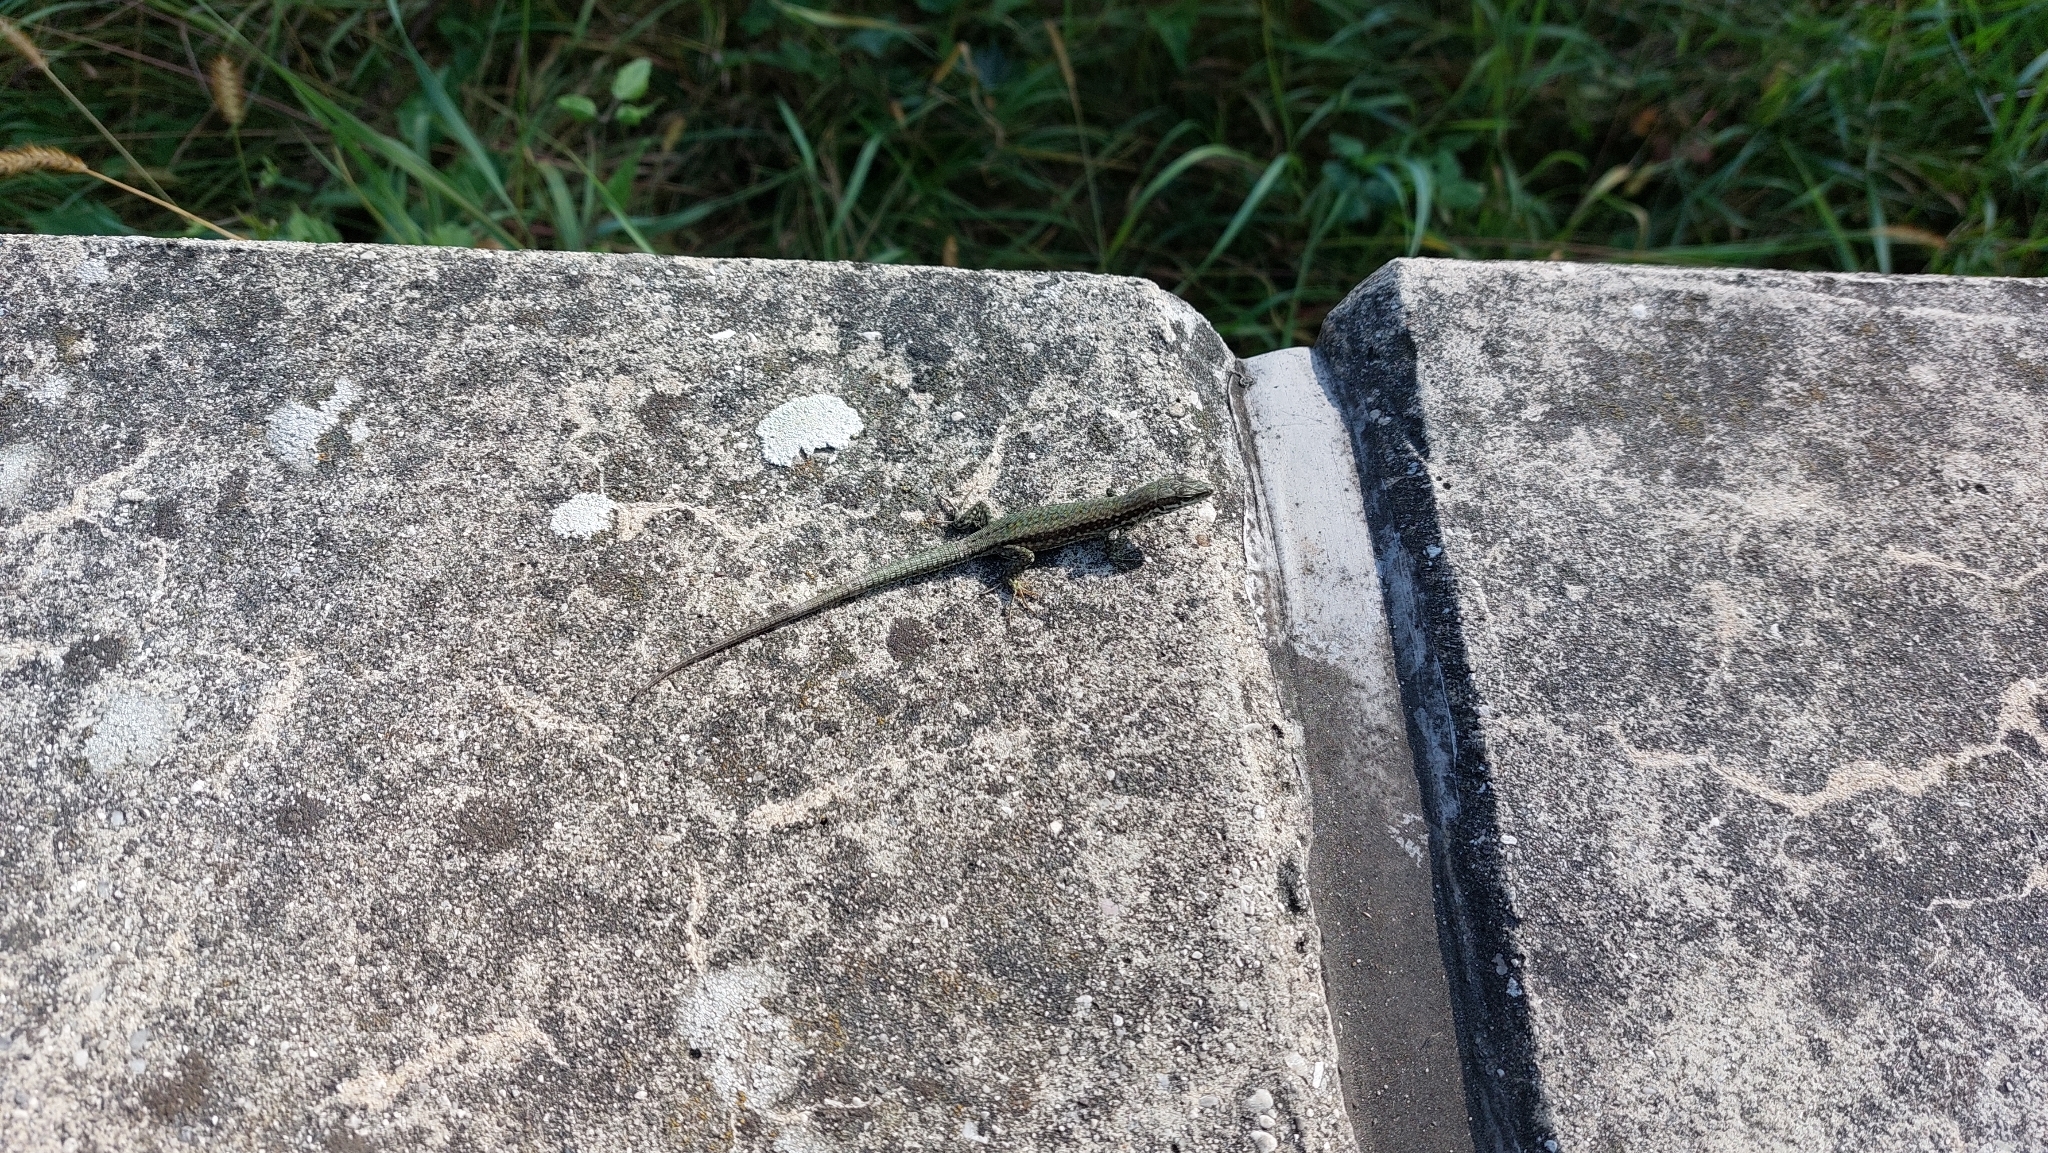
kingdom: Animalia
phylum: Chordata
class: Squamata
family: Lacertidae
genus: Podarcis
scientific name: Podarcis muralis
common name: Common wall lizard
